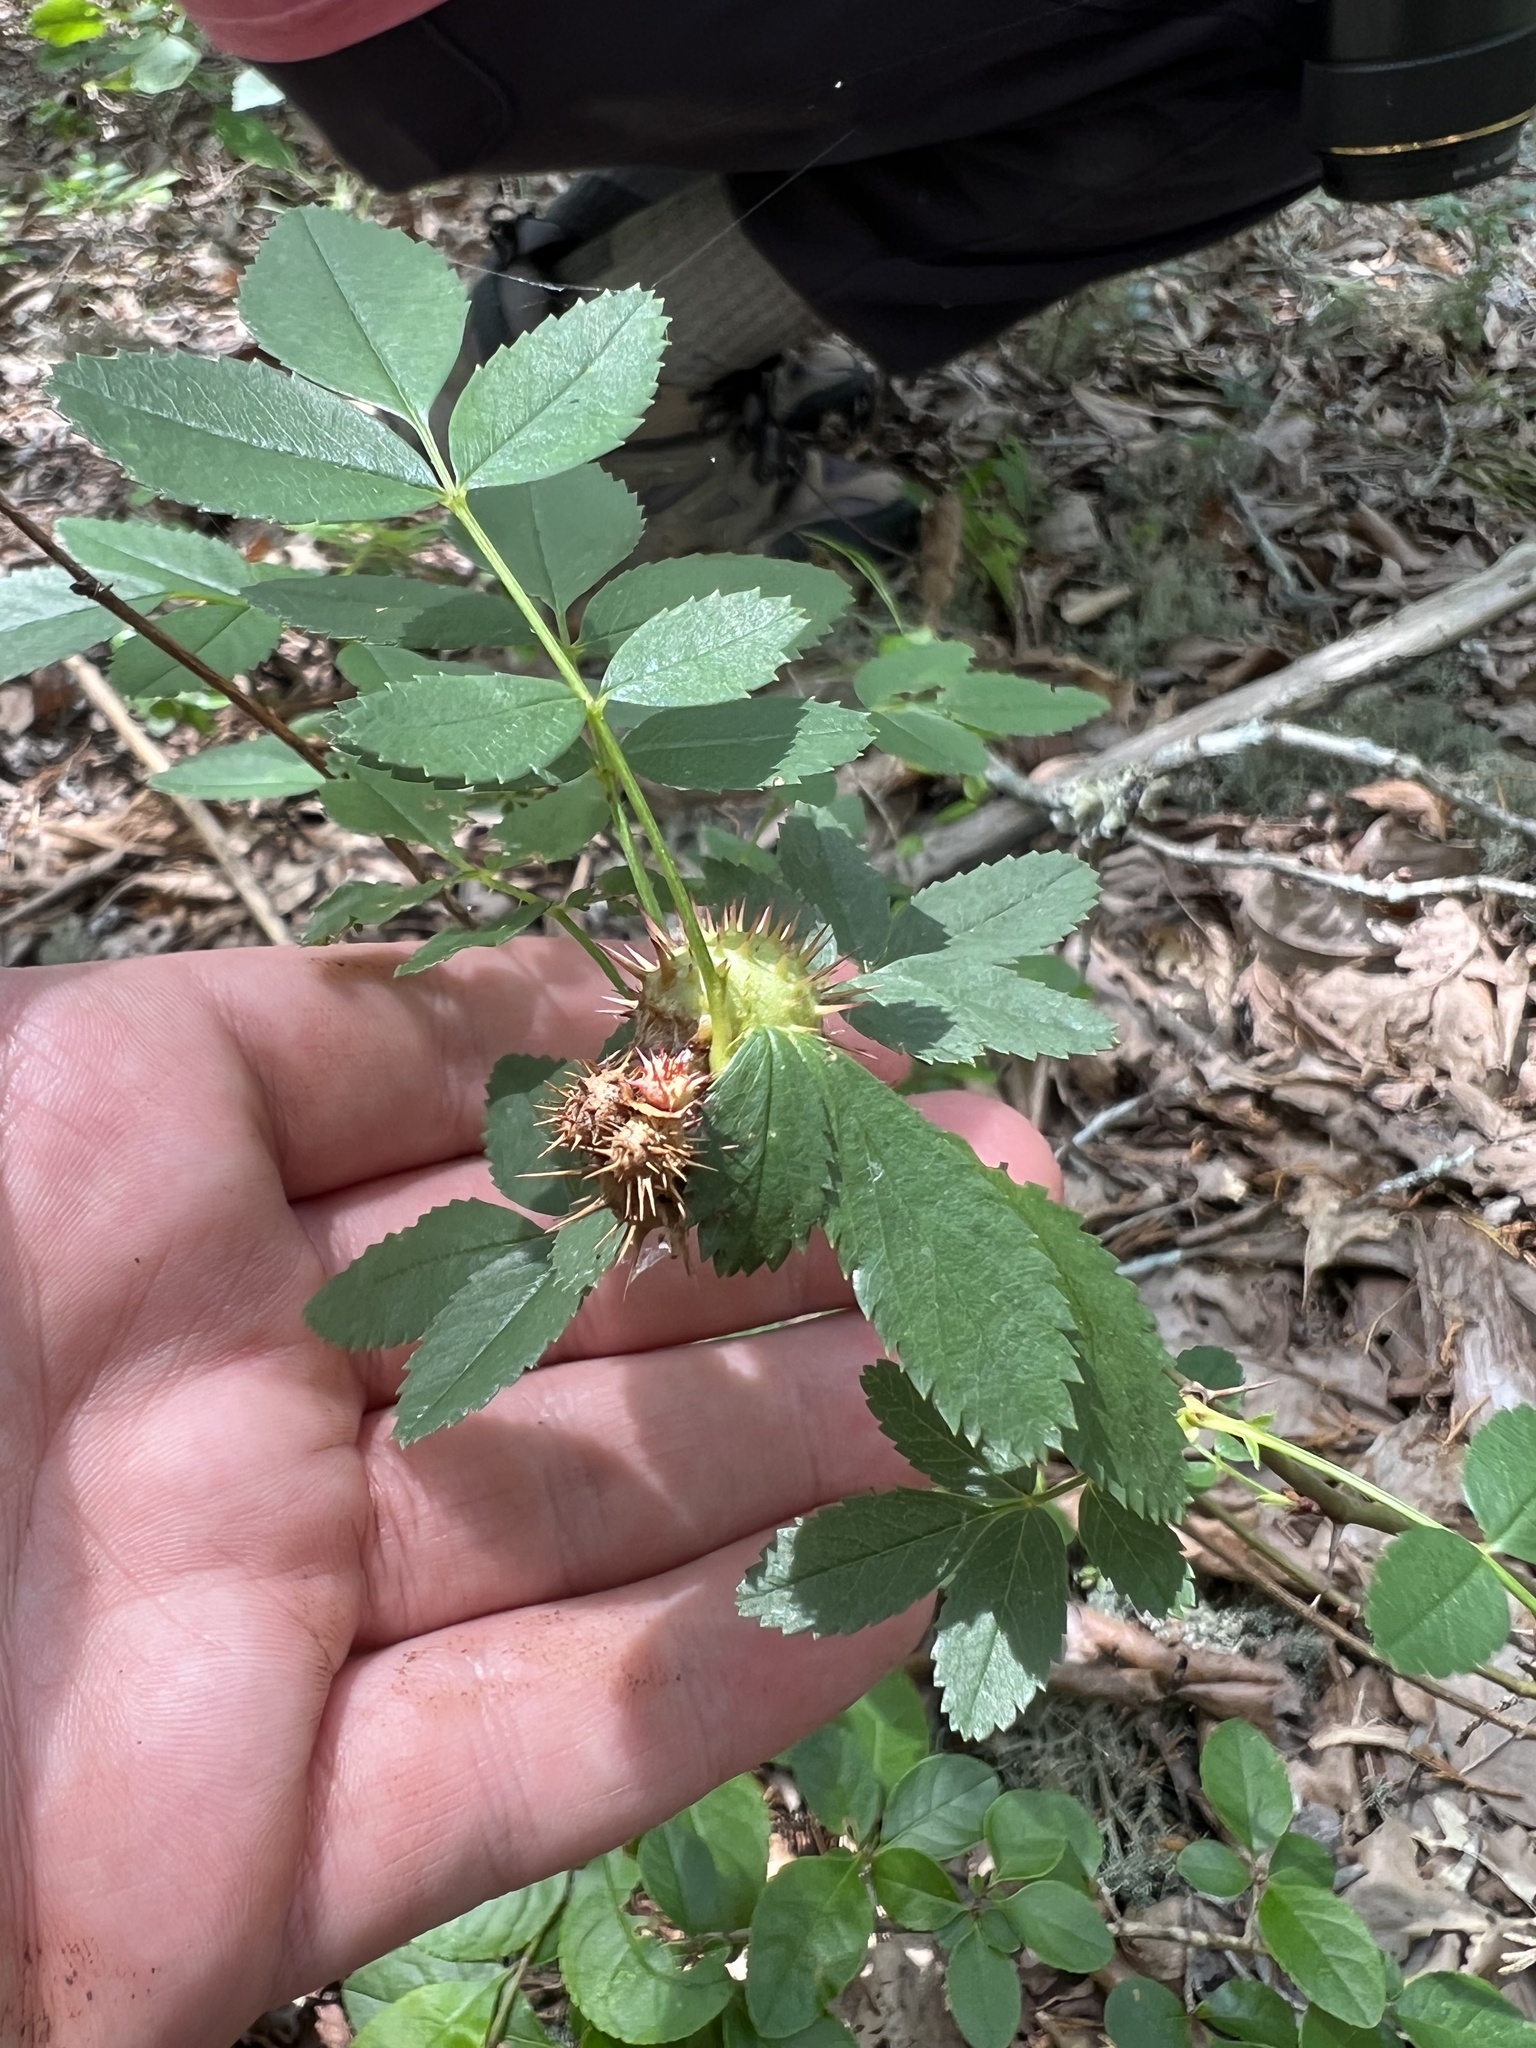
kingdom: Plantae
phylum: Tracheophyta
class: Magnoliopsida
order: Rosales
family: Rosaceae
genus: Rosa
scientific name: Rosa carolina
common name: Pasture rose
